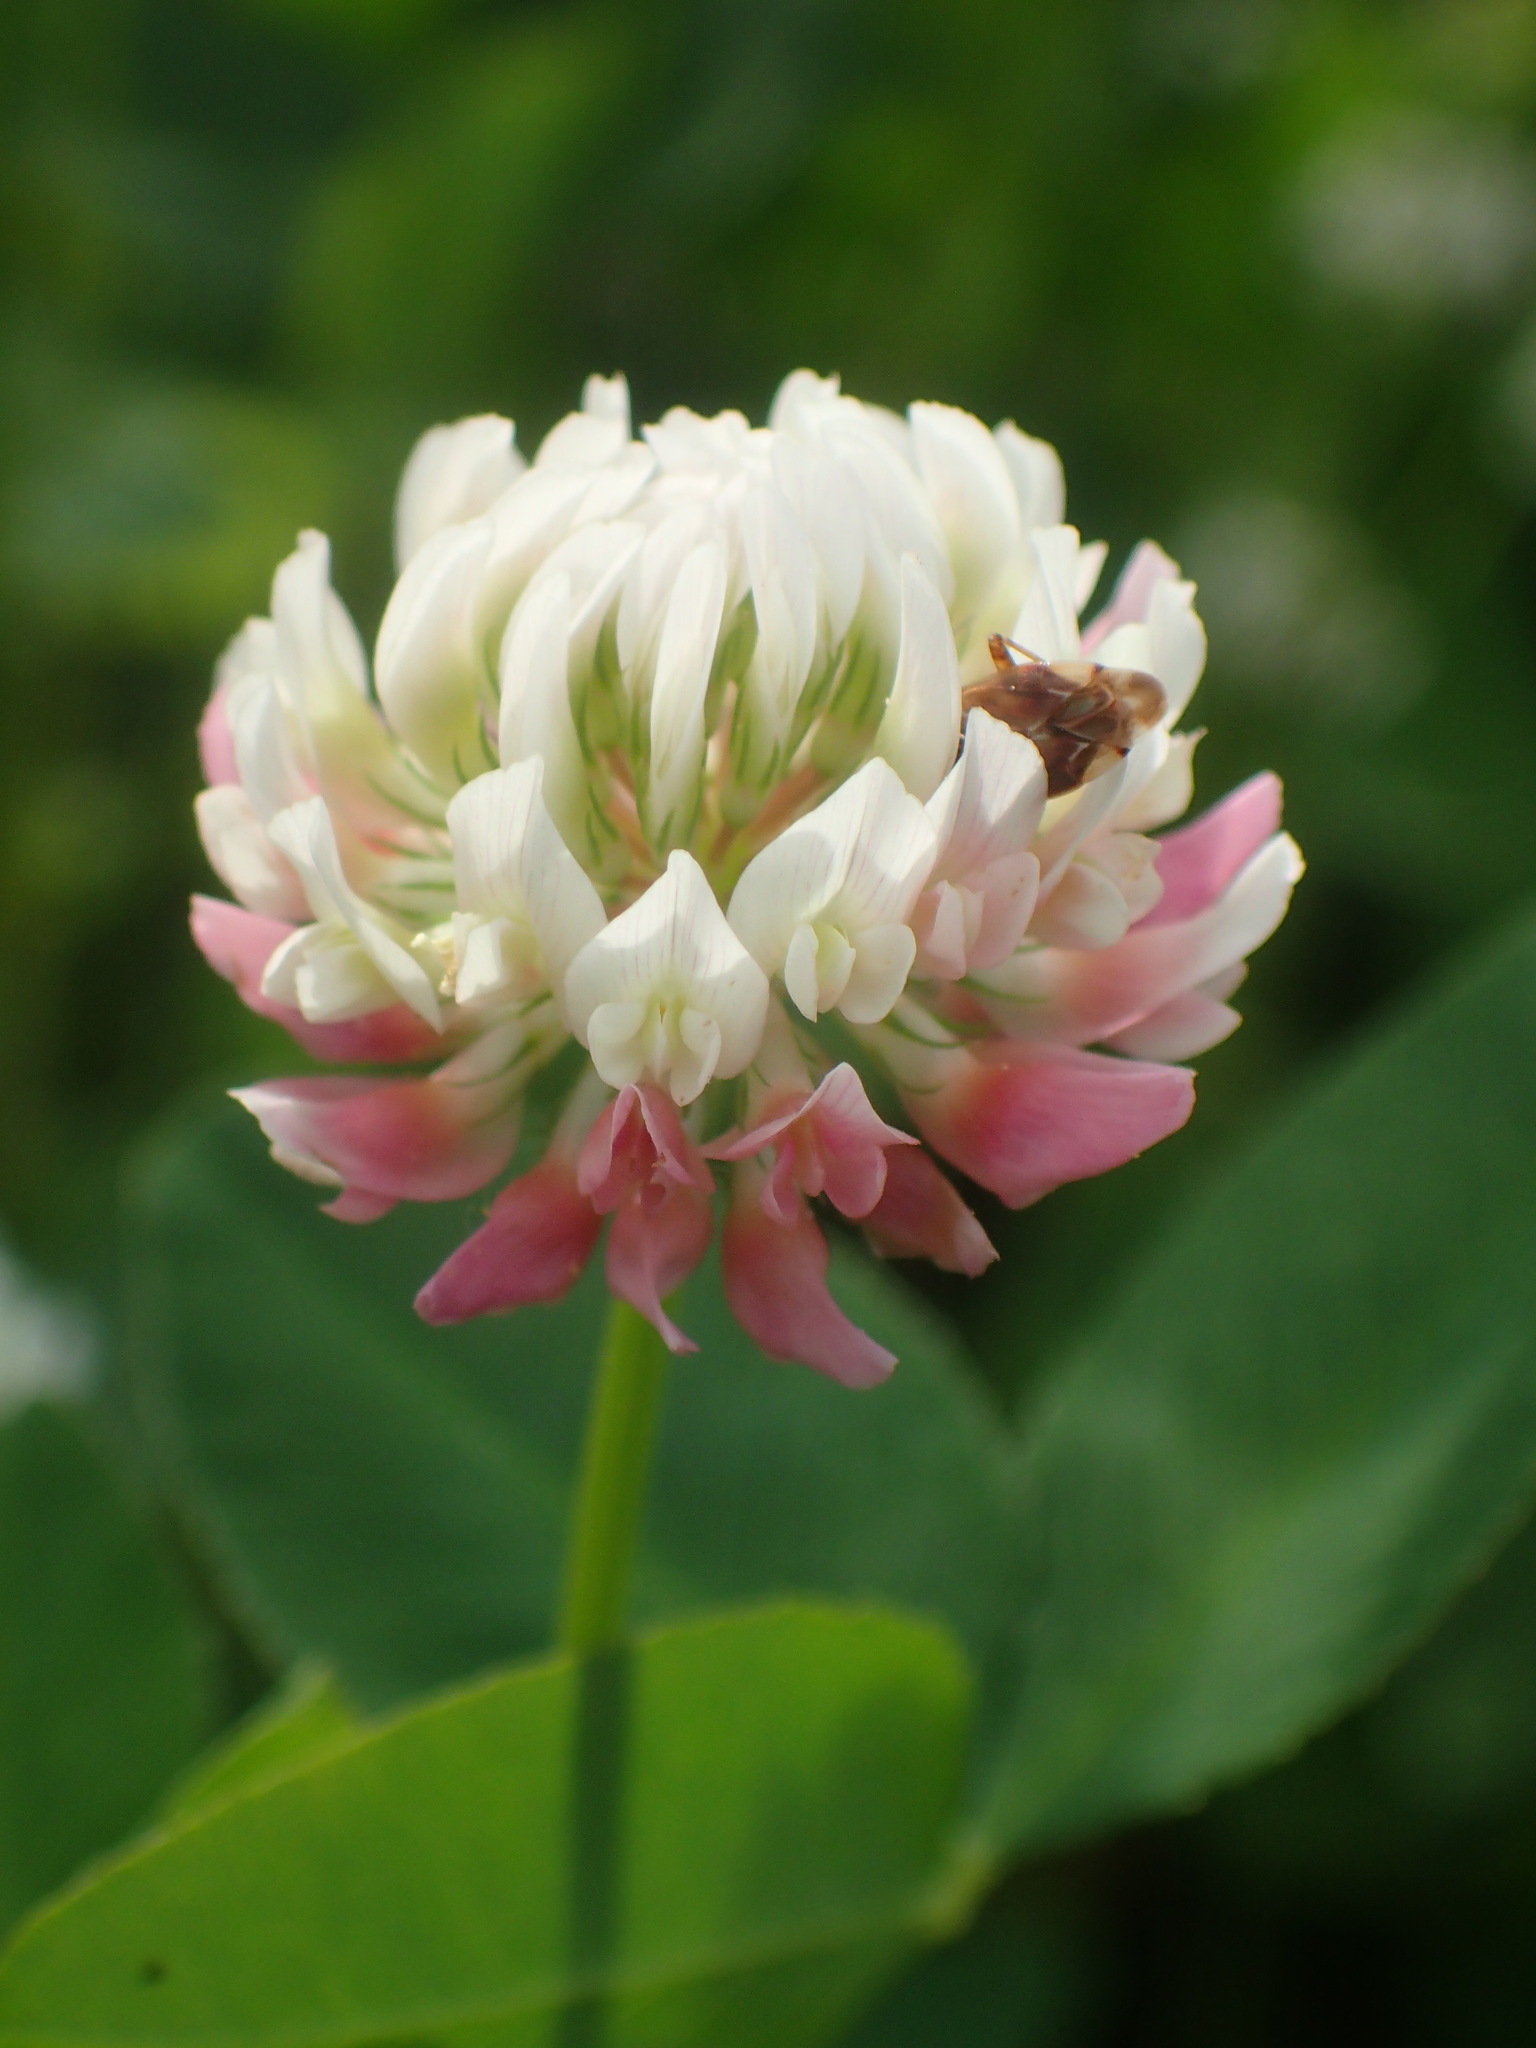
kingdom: Plantae
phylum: Tracheophyta
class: Magnoliopsida
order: Fabales
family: Fabaceae
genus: Trifolium
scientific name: Trifolium hybridum
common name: Alsike clover
